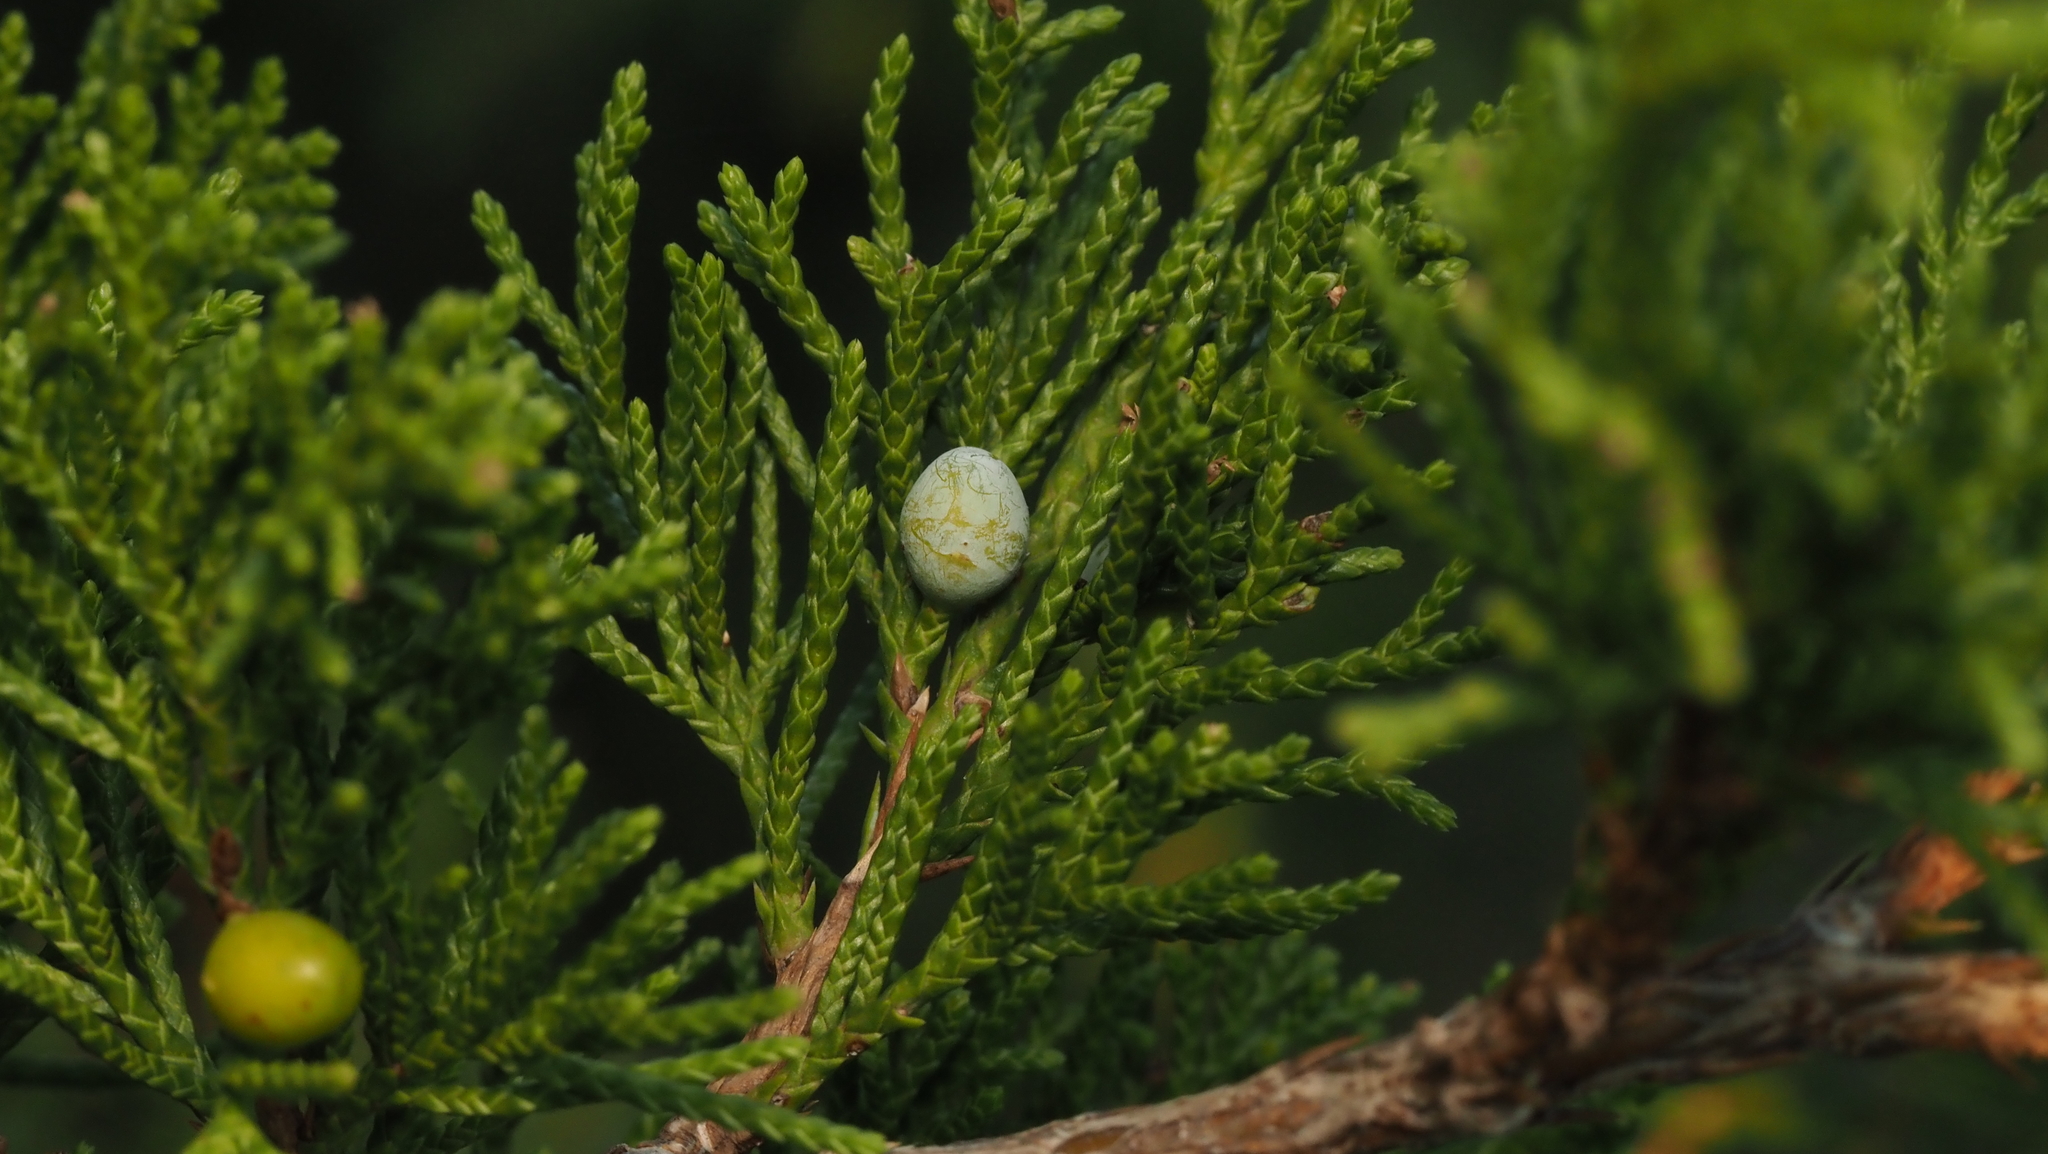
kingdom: Plantae
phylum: Tracheophyta
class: Pinopsida
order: Pinales
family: Cupressaceae
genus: Juniperus
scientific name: Juniperus virginiana
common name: Red juniper
